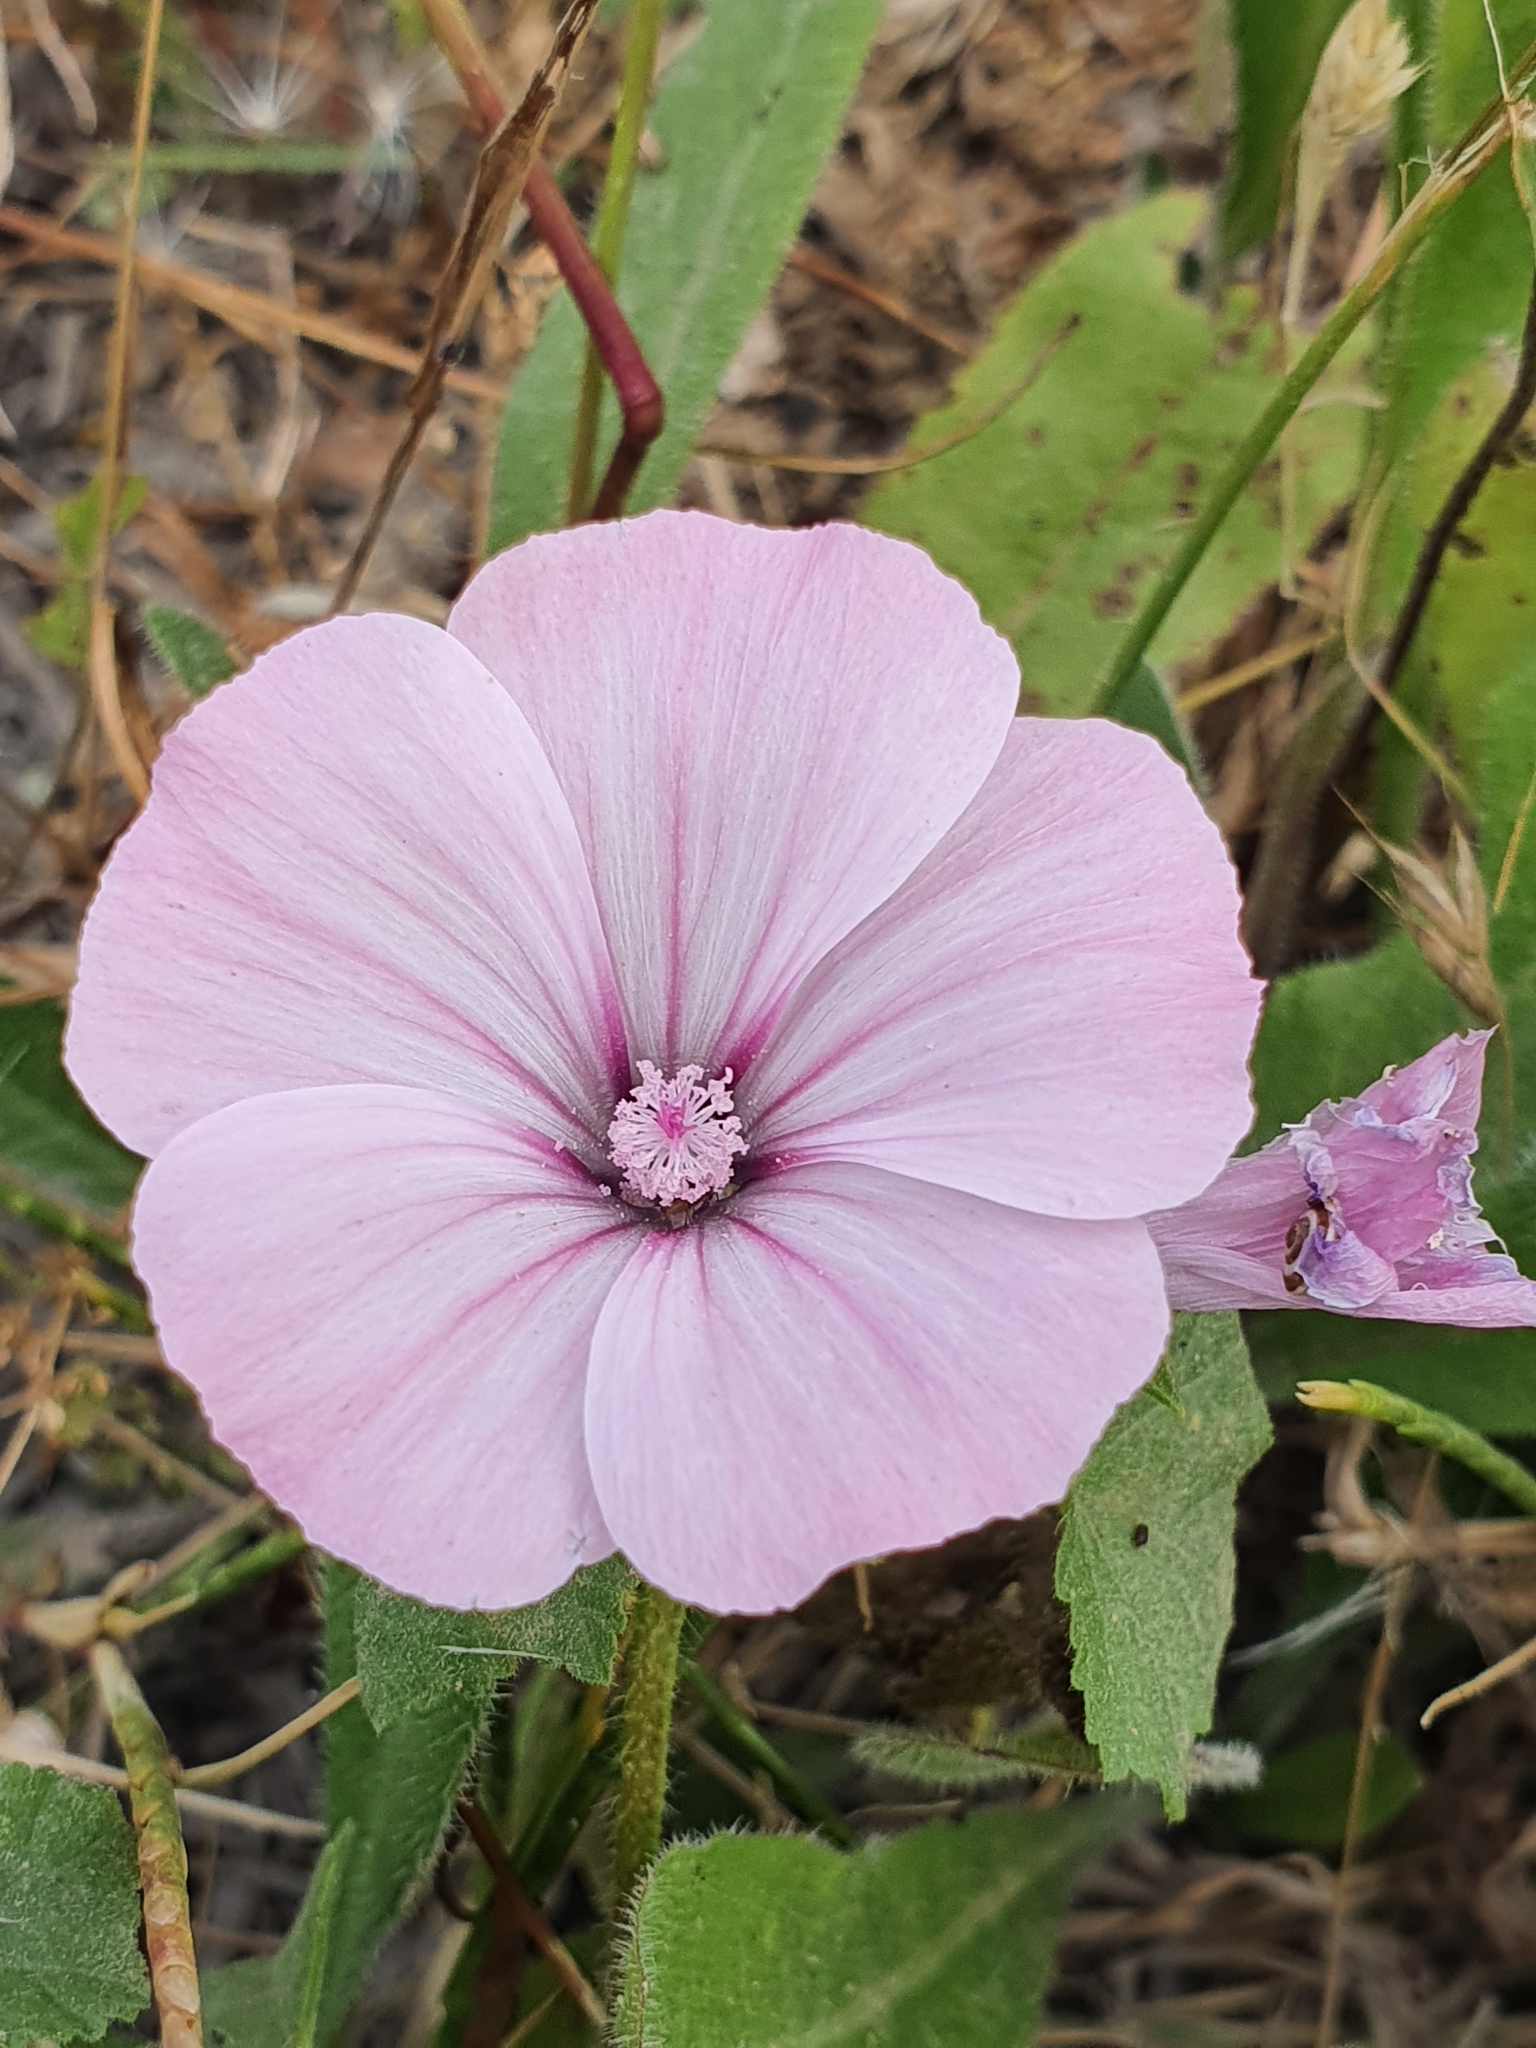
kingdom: Plantae
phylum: Tracheophyta
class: Magnoliopsida
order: Malvales
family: Malvaceae
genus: Malva
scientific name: Malva trimestris
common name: Royal mallow
